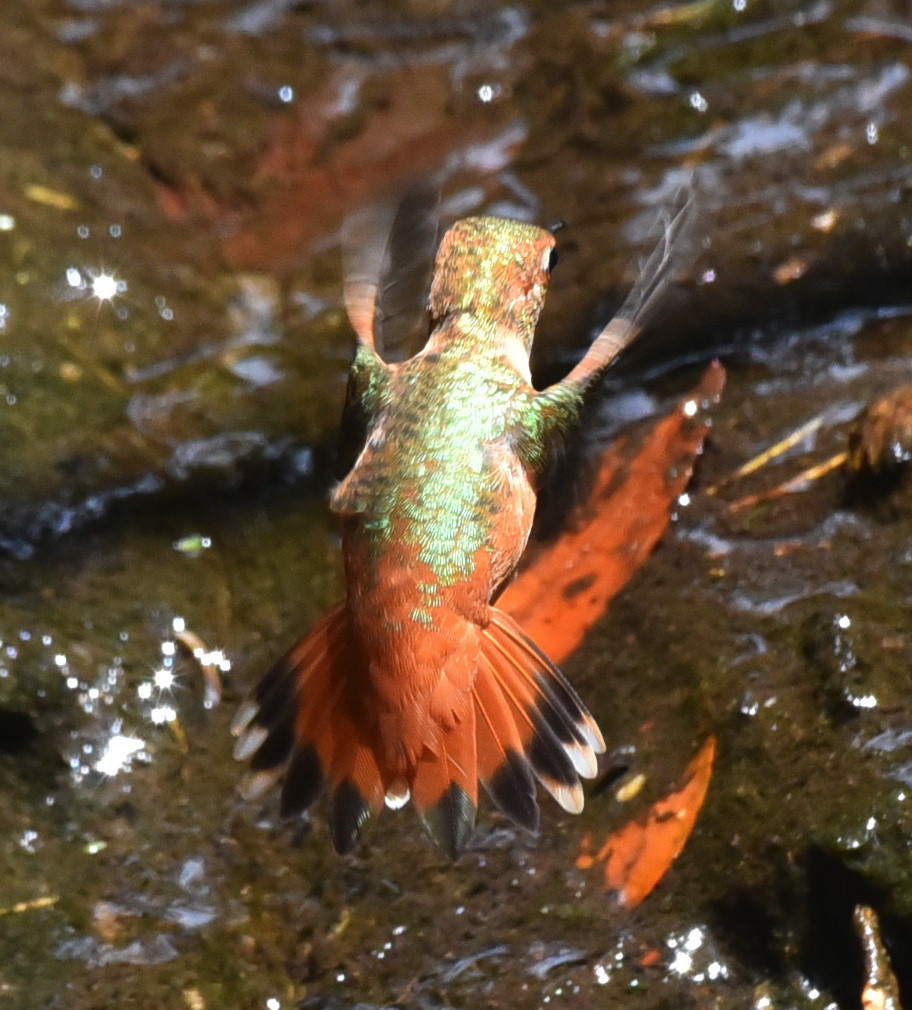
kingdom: Animalia
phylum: Chordata
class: Aves
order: Apodiformes
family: Trochilidae
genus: Selasphorus
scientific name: Selasphorus sasin
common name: Allen's hummingbird
